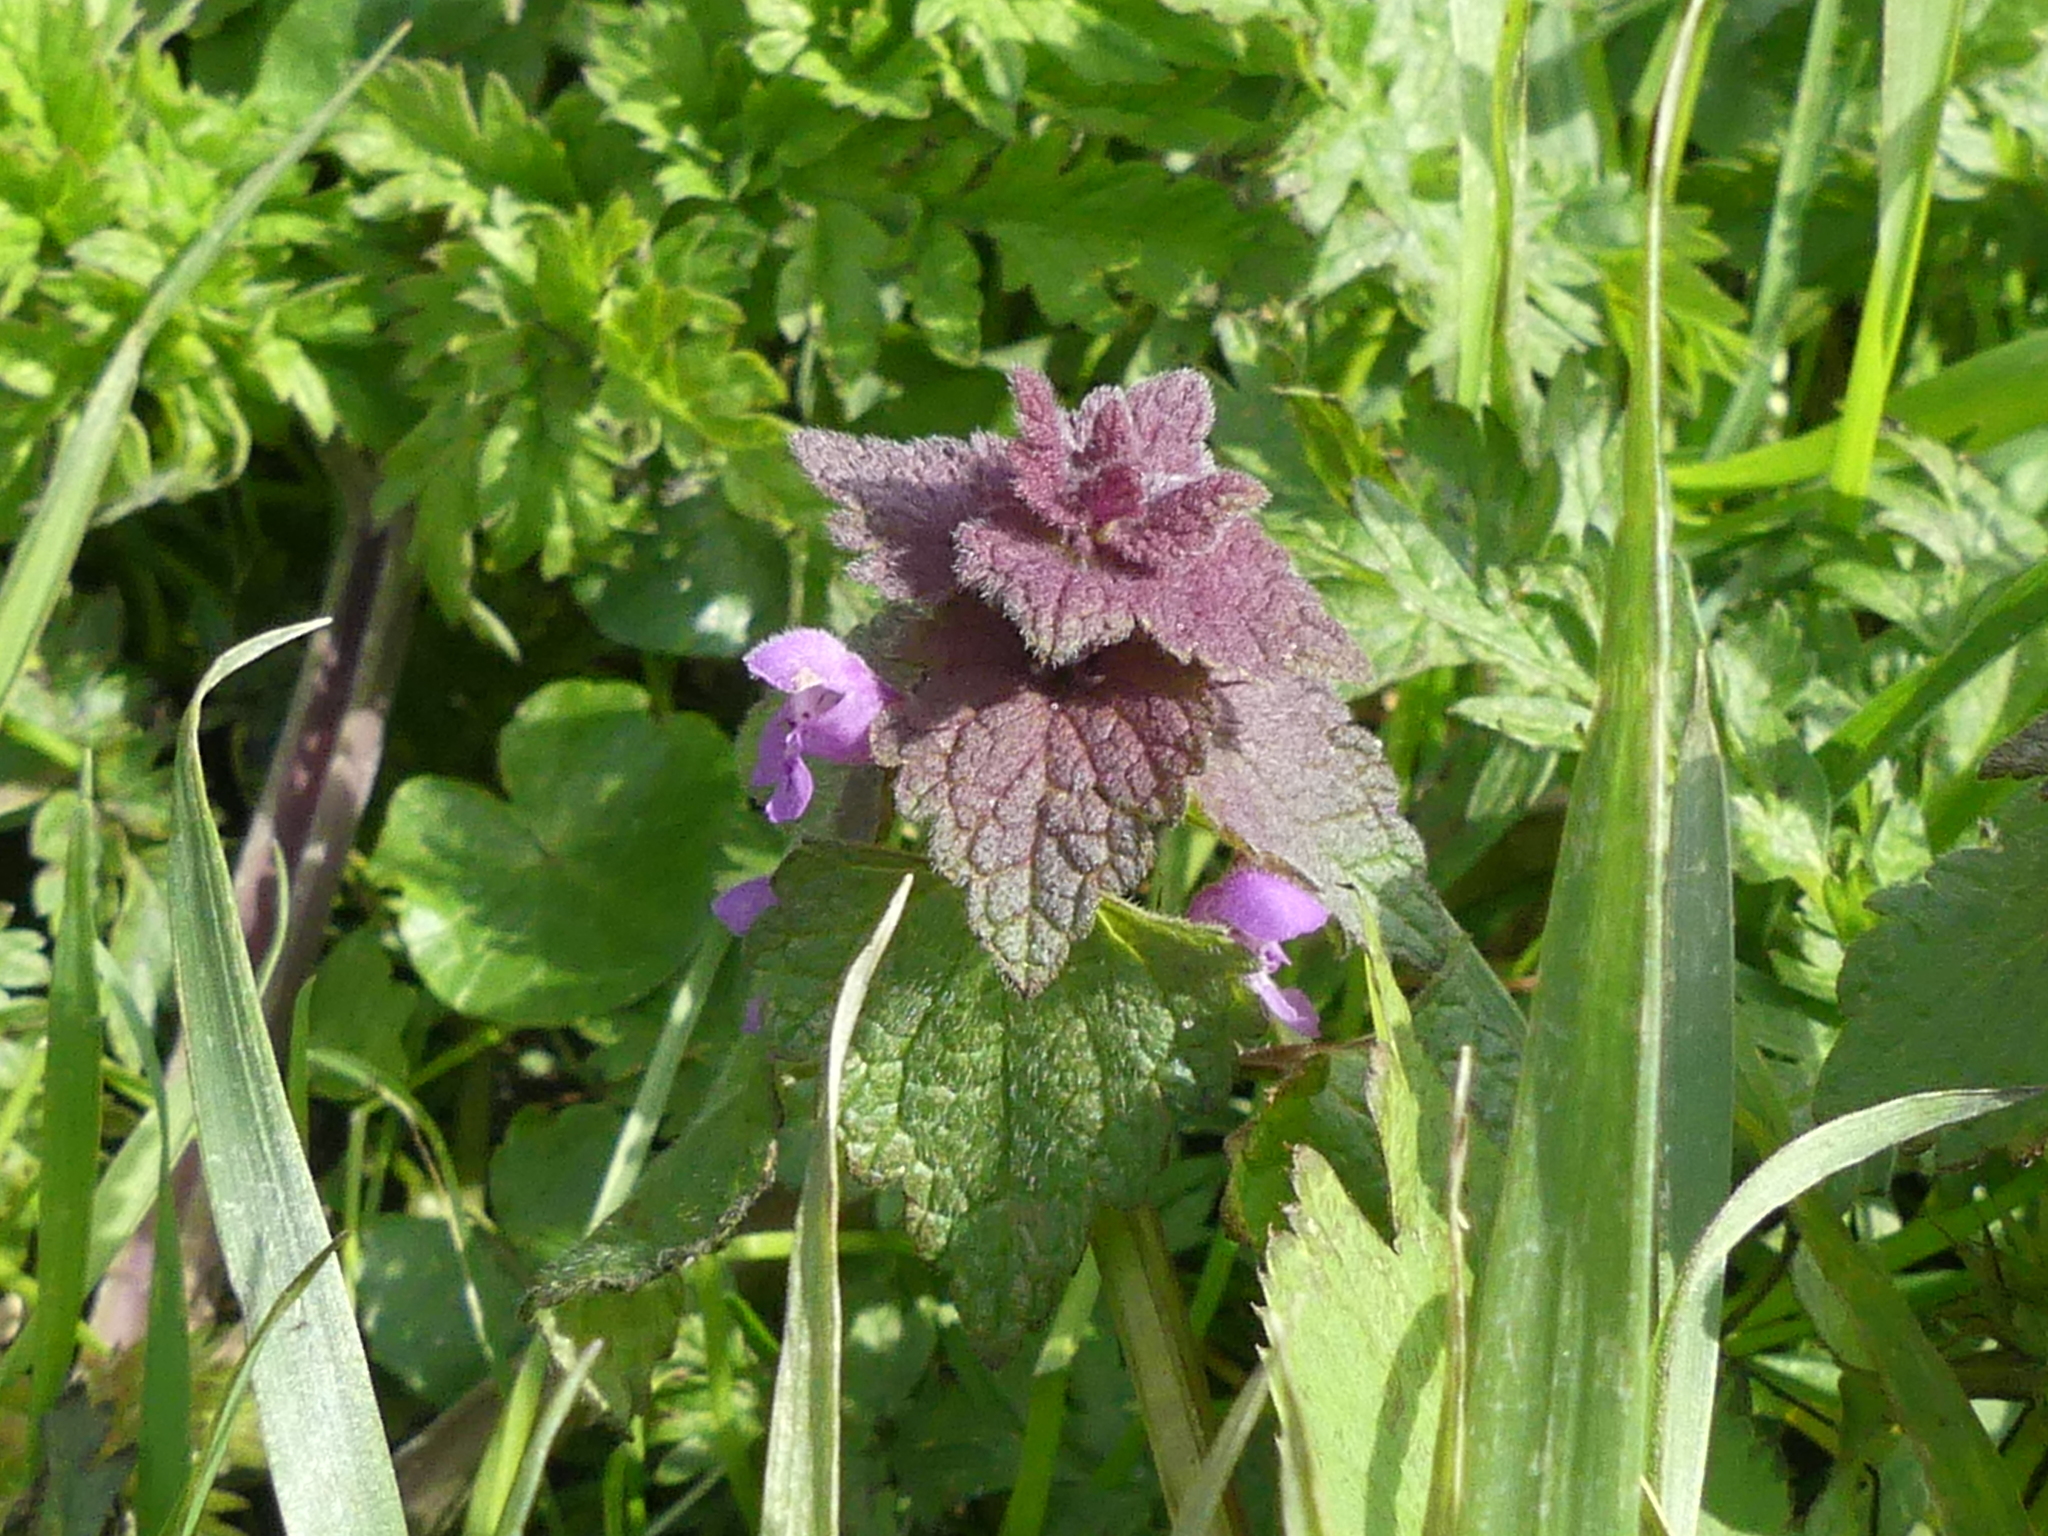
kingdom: Plantae
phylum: Tracheophyta
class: Magnoliopsida
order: Lamiales
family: Lamiaceae
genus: Lamium
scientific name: Lamium purpureum
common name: Red dead-nettle
